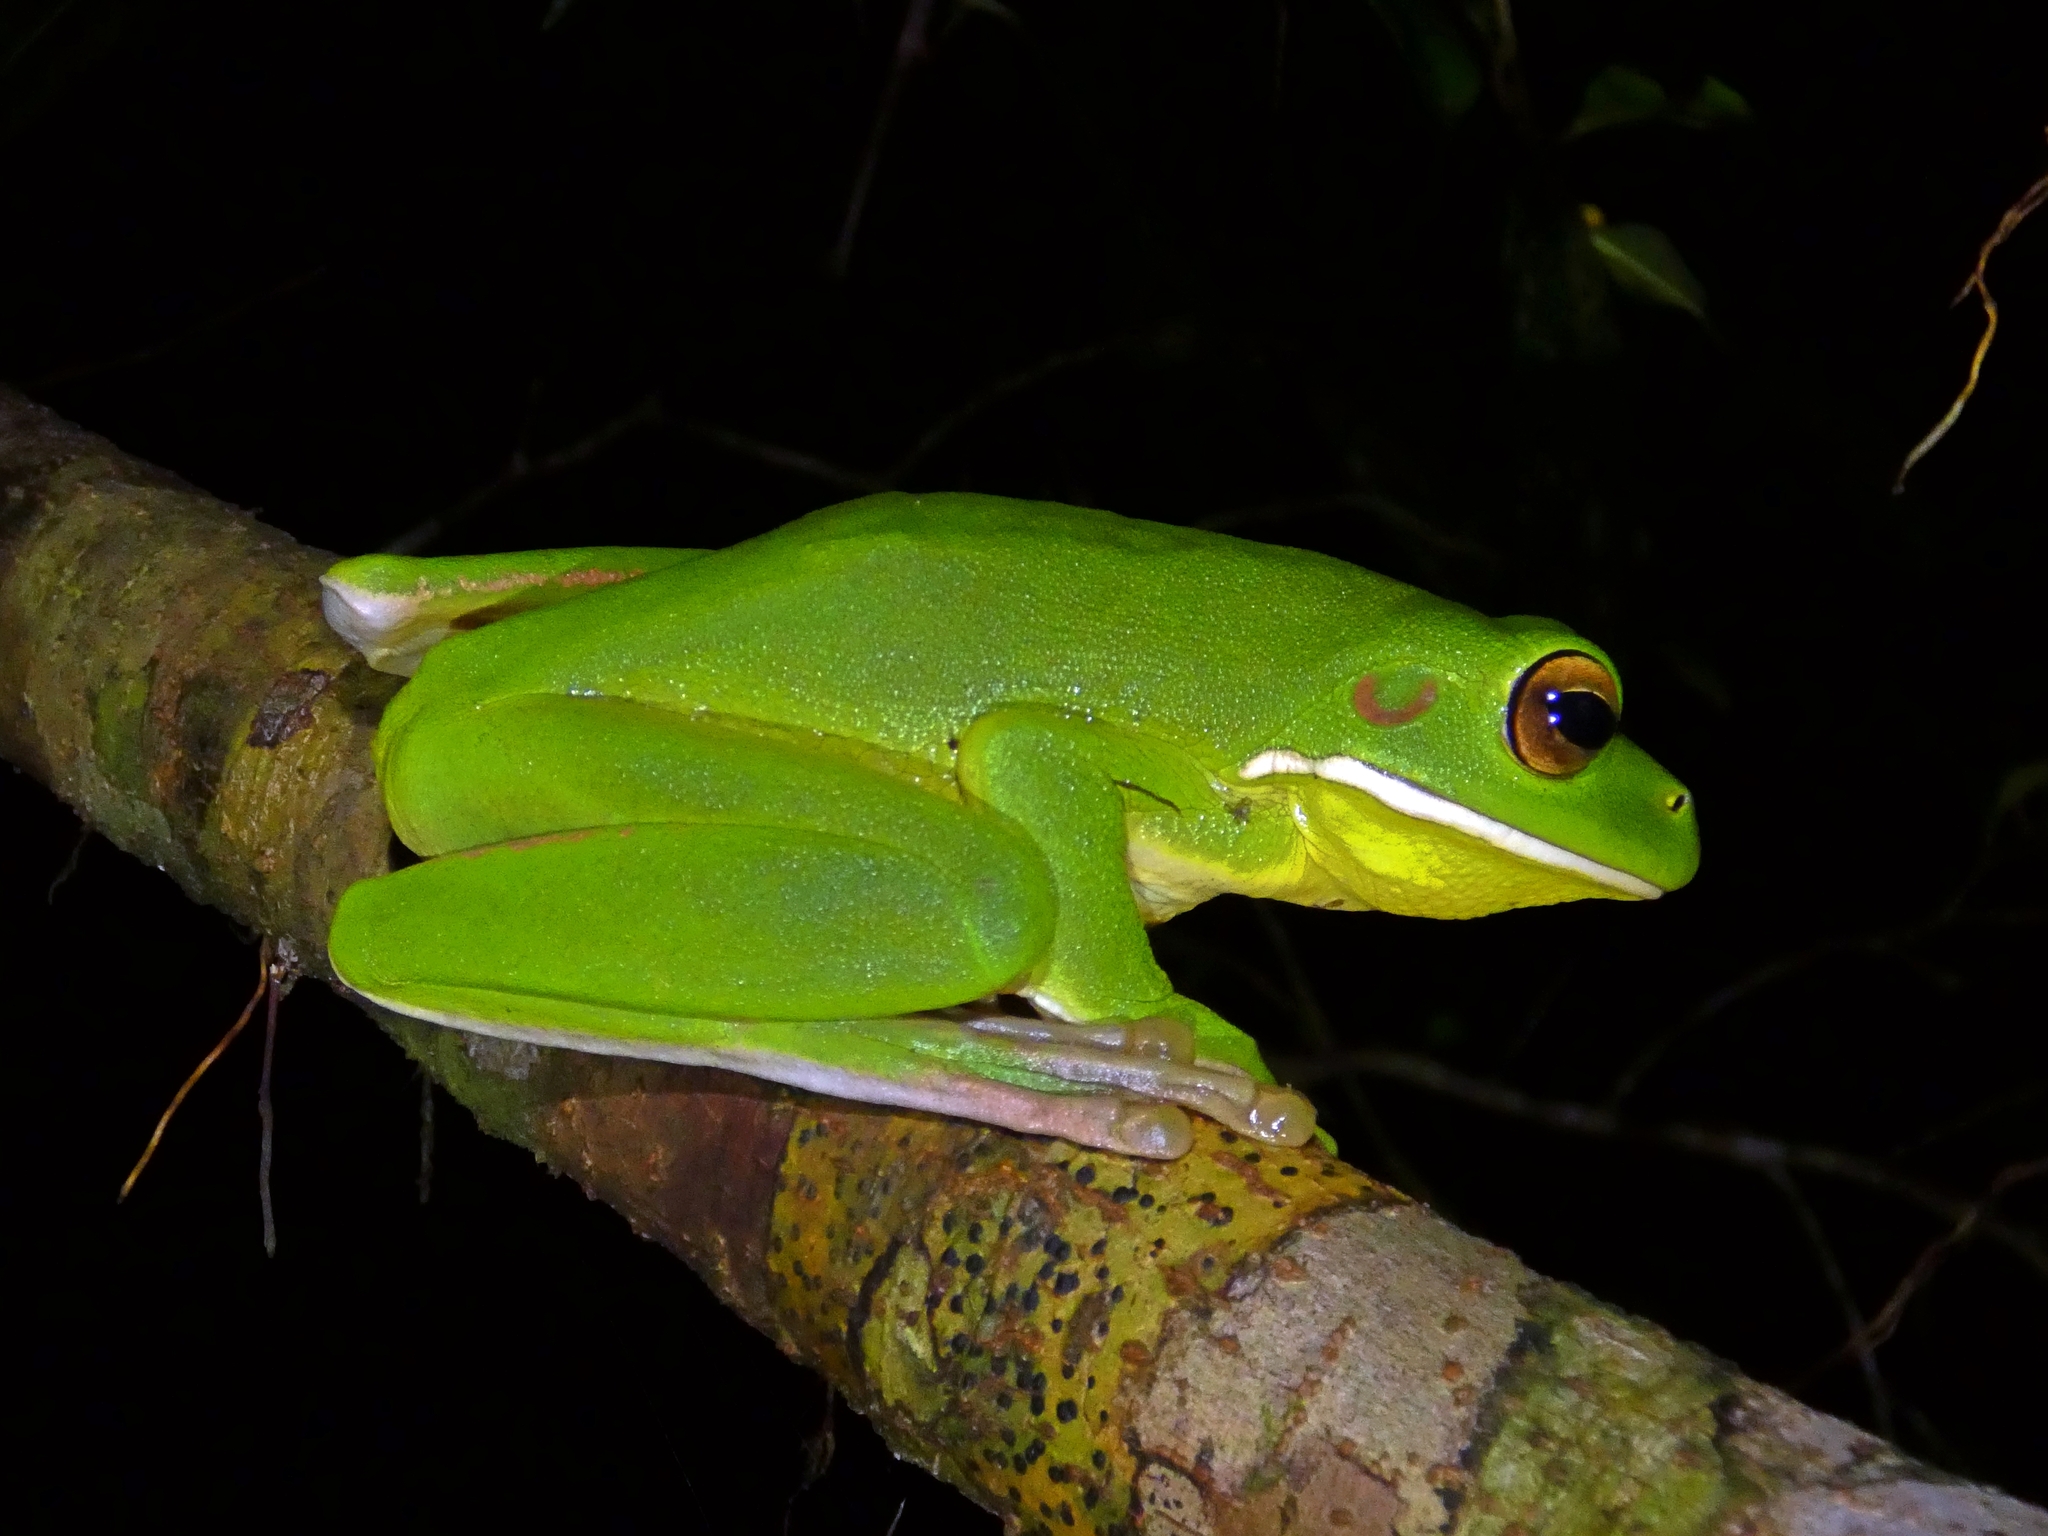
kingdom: Animalia
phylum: Chordata
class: Amphibia
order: Anura
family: Pelodryadidae
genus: Nyctimystes
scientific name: Nyctimystes infrafrenatus
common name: Australian giant treefrog
